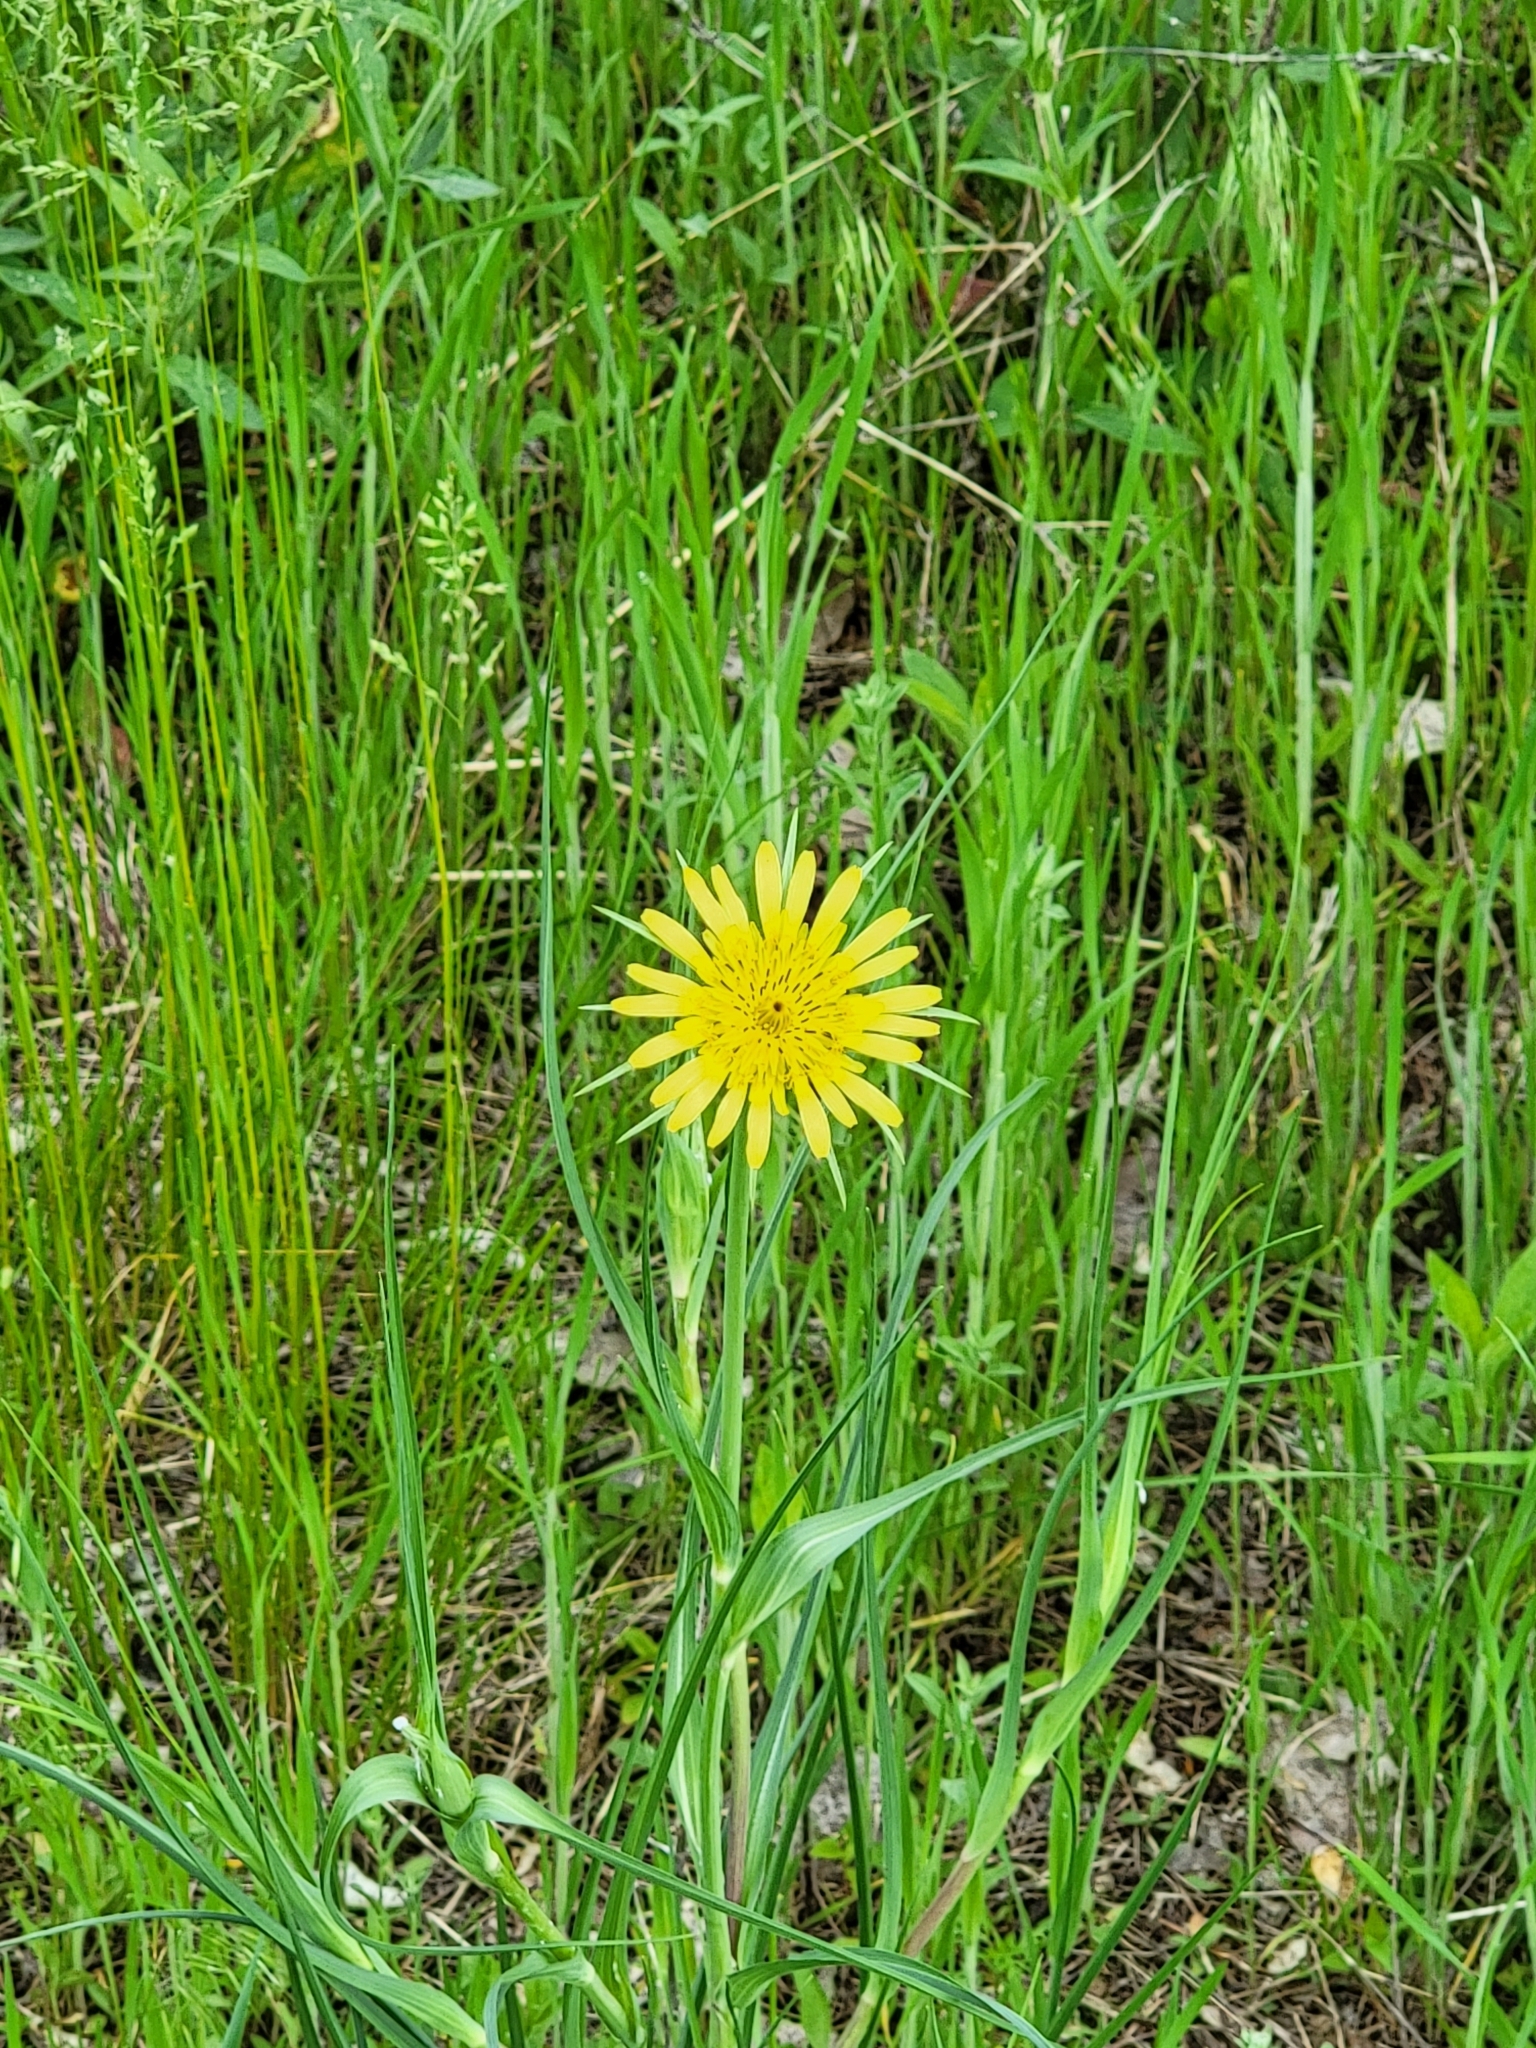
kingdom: Plantae
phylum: Tracheophyta
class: Magnoliopsida
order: Asterales
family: Asteraceae
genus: Tragopogon
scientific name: Tragopogon dubius
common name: Yellow salsify
